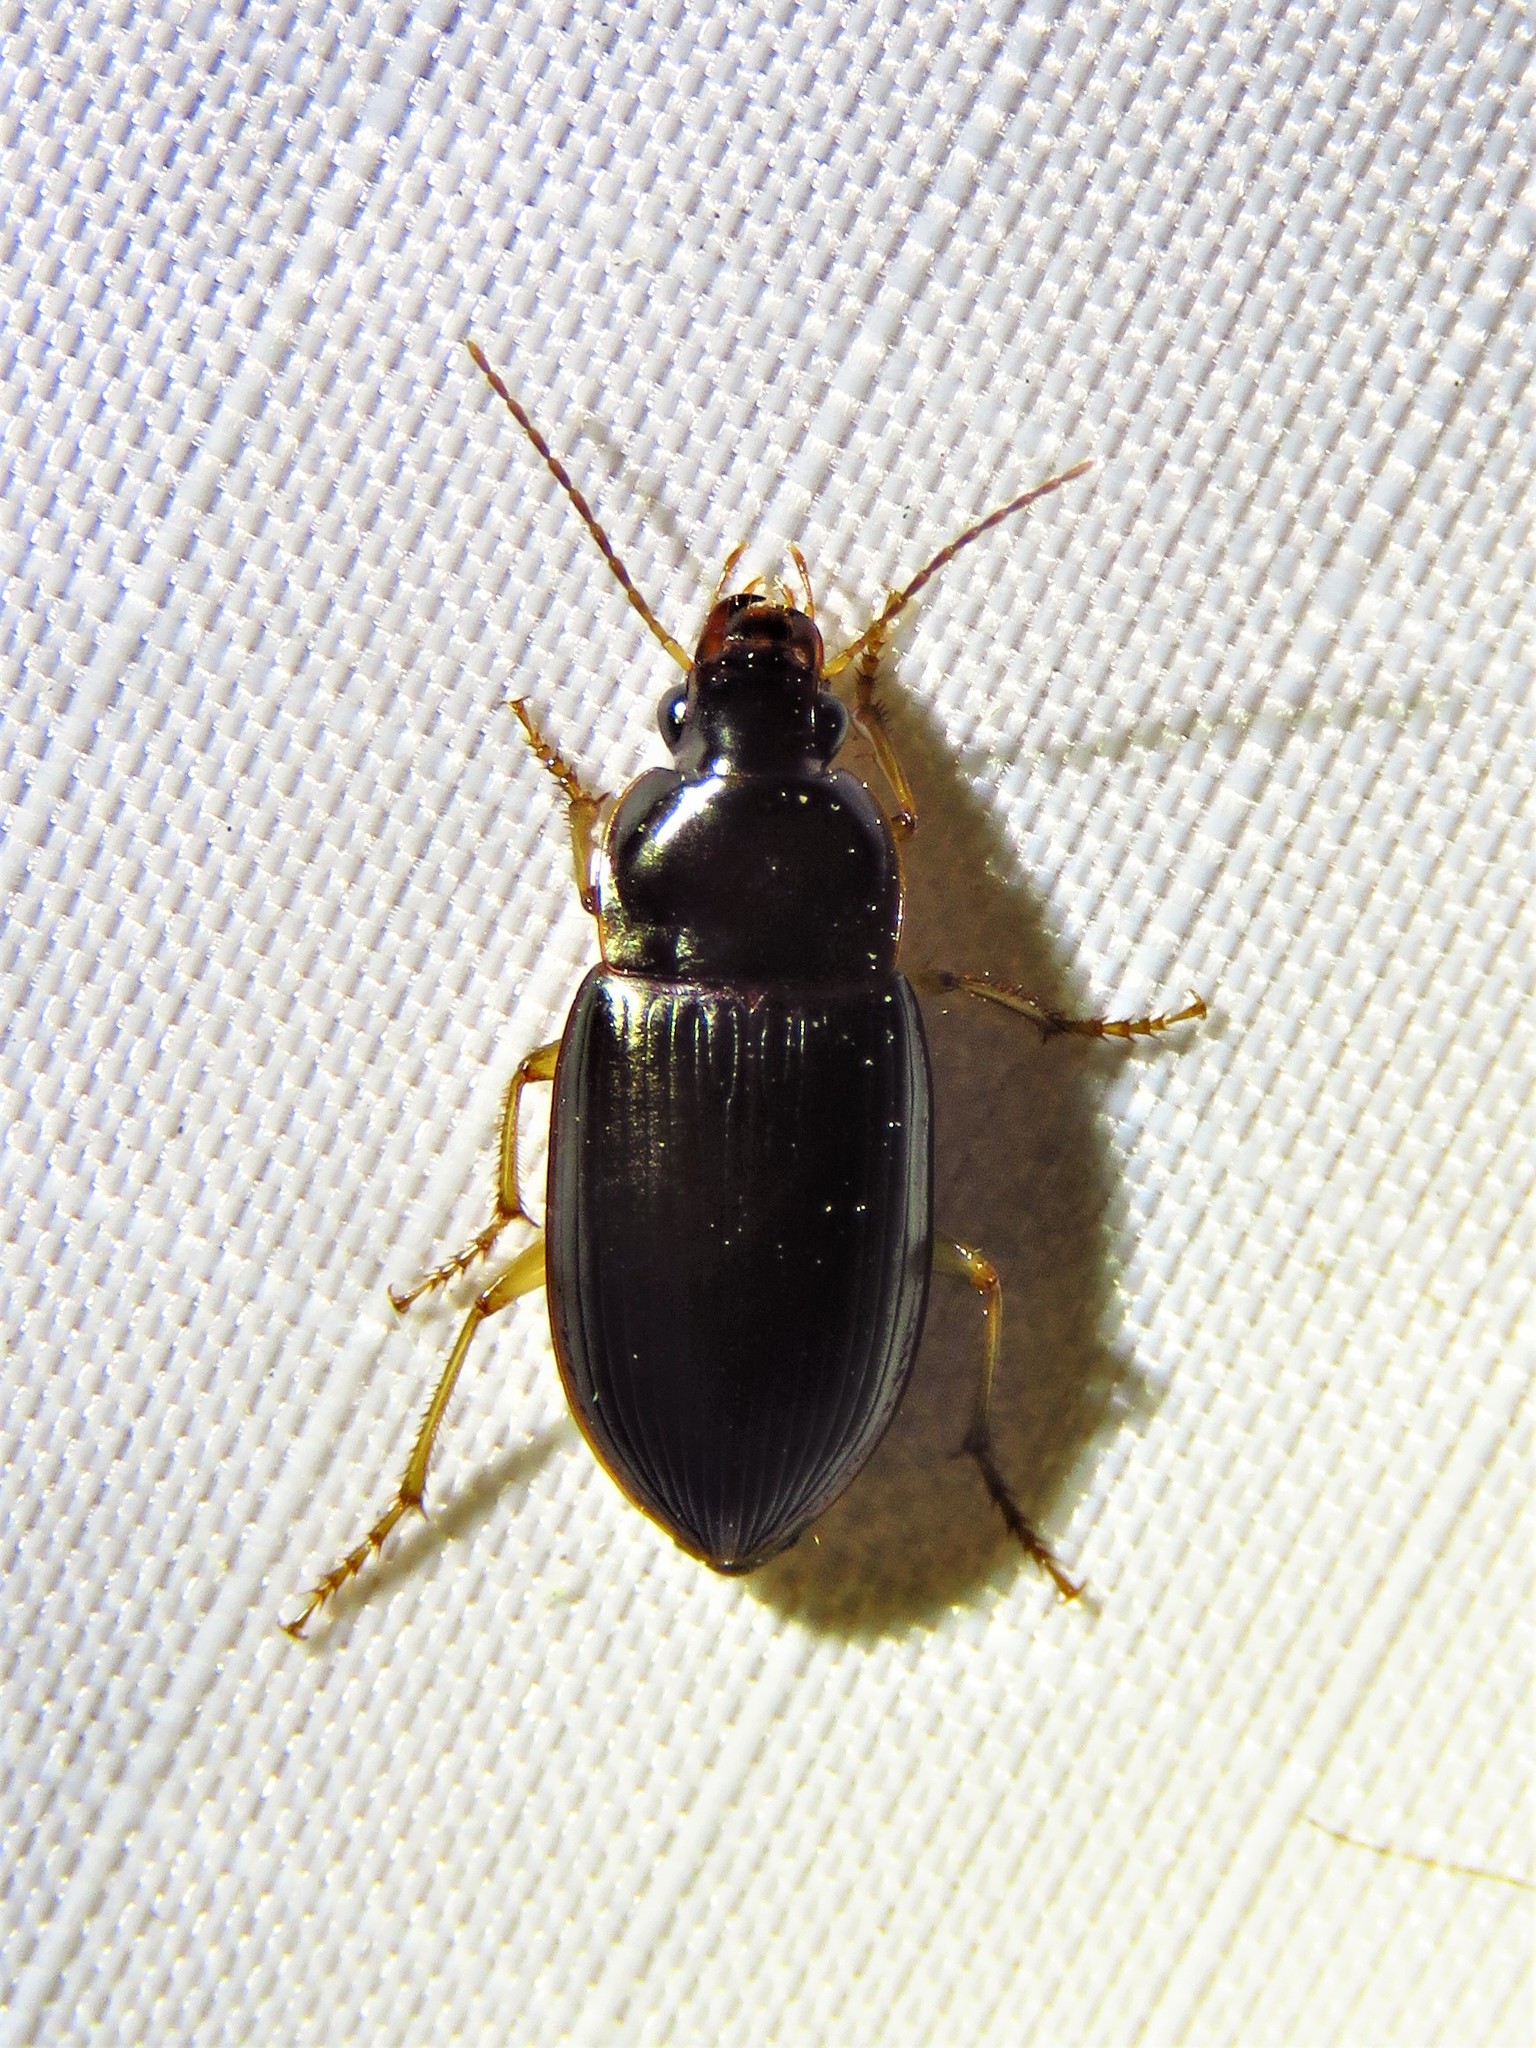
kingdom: Animalia
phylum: Arthropoda
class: Insecta
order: Coleoptera
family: Carabidae
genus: Notiobia
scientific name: Notiobia terminata
